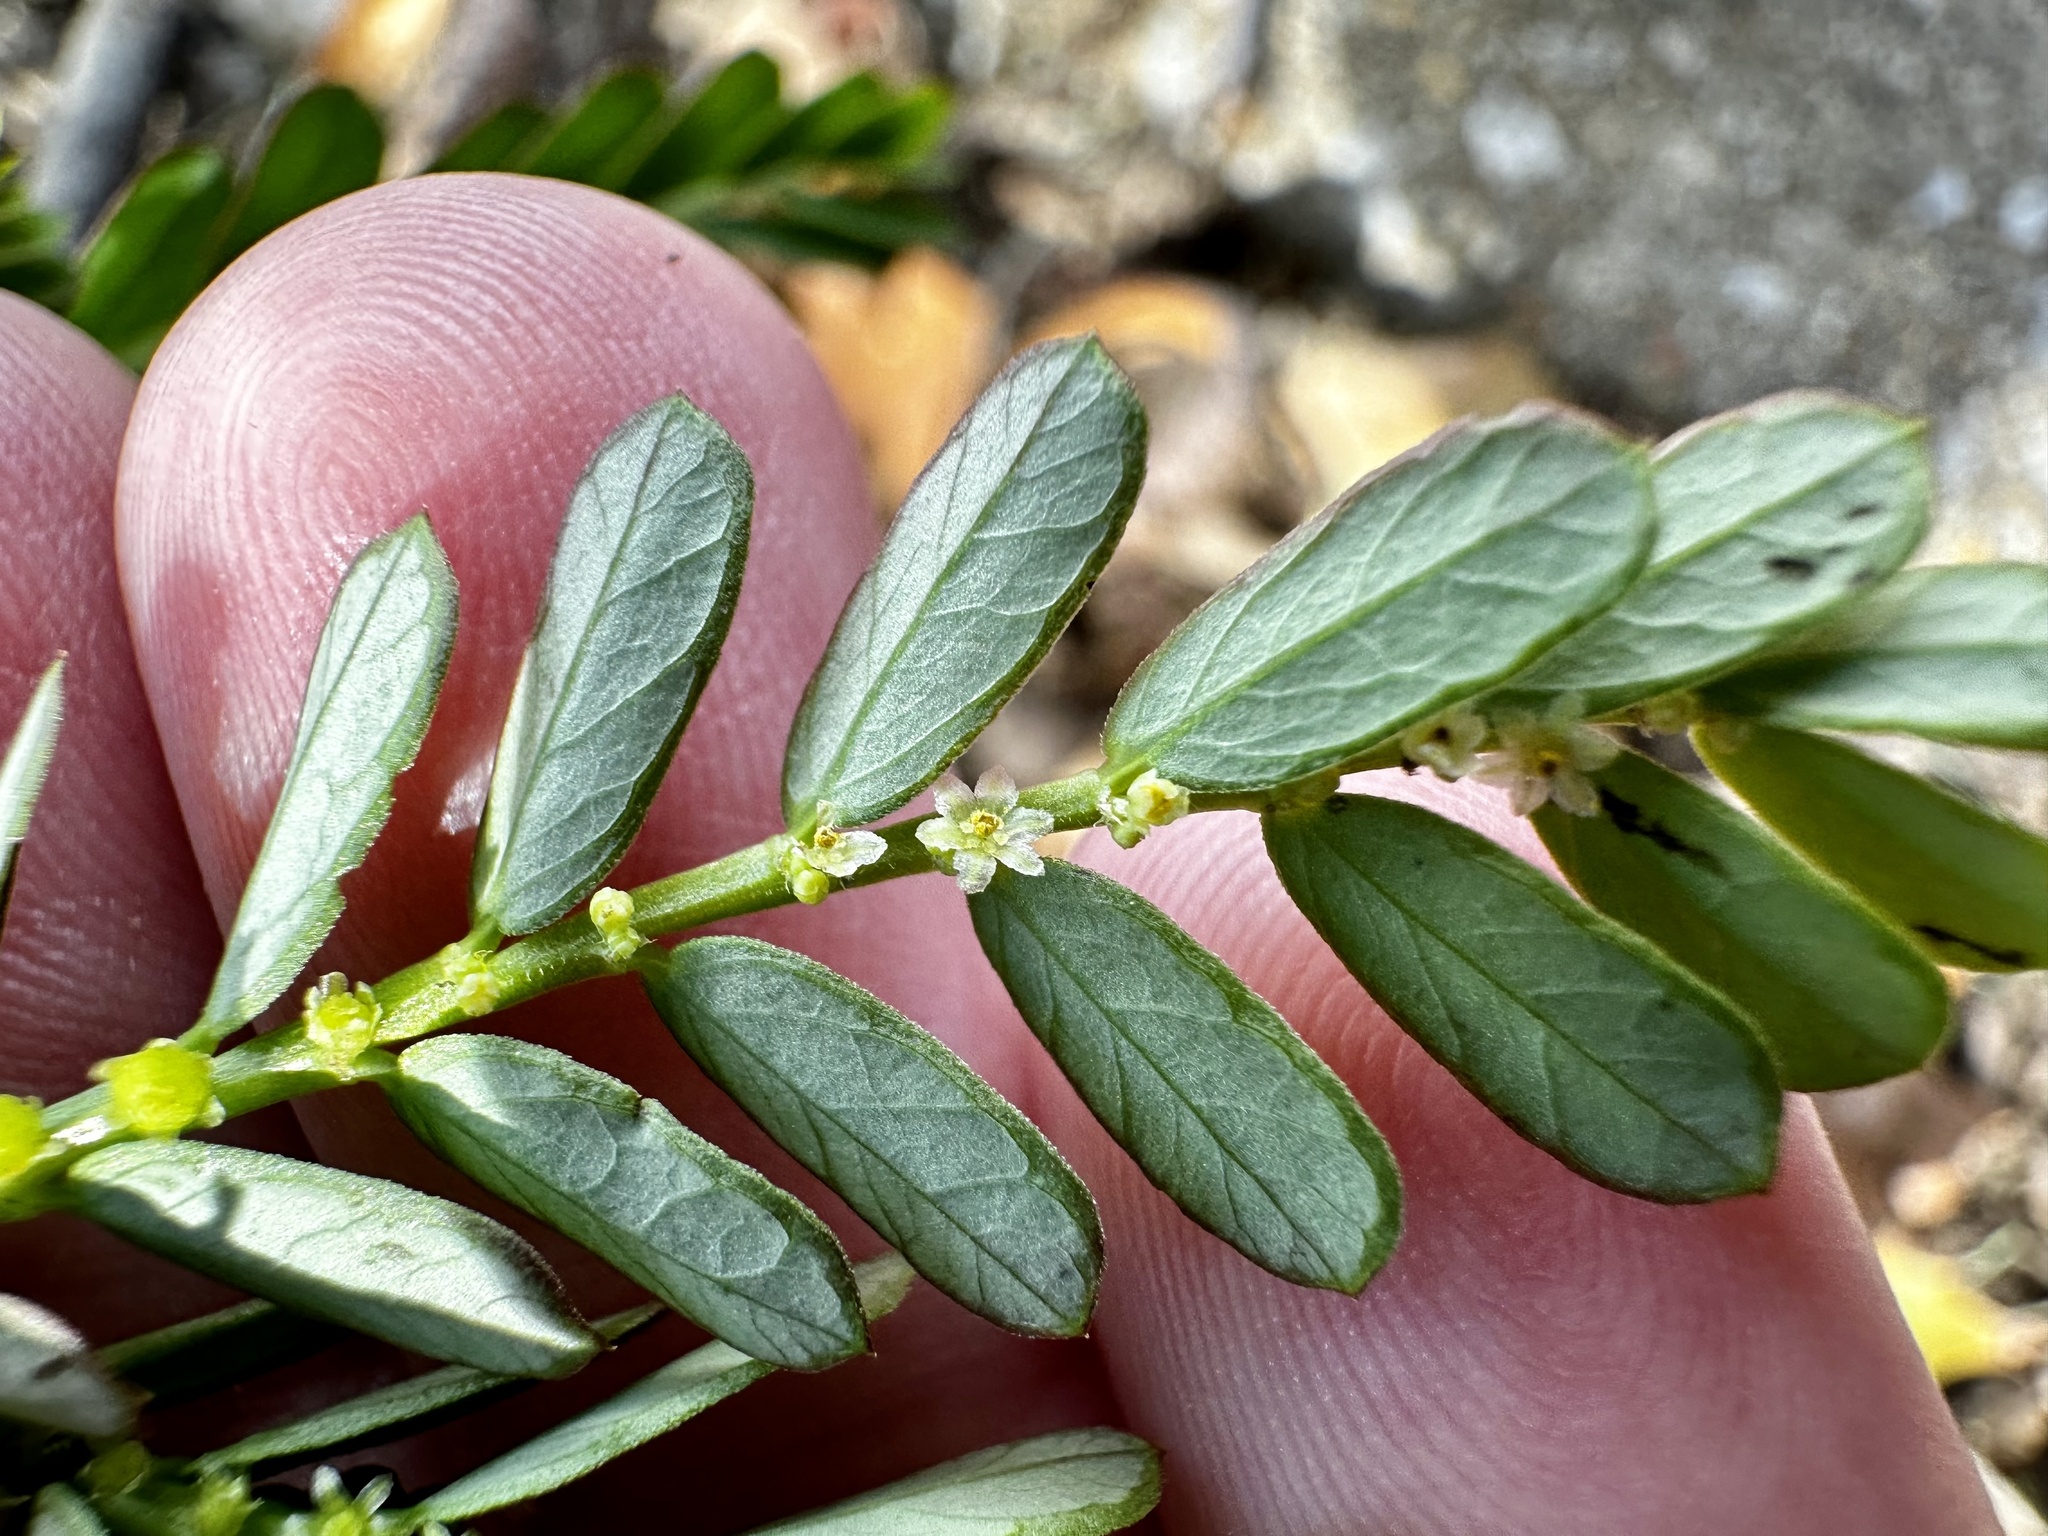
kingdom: Plantae
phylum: Tracheophyta
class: Magnoliopsida
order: Malpighiales
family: Phyllanthaceae
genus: Phyllanthus
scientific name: Phyllanthus urinaria
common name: Chamber bitter
